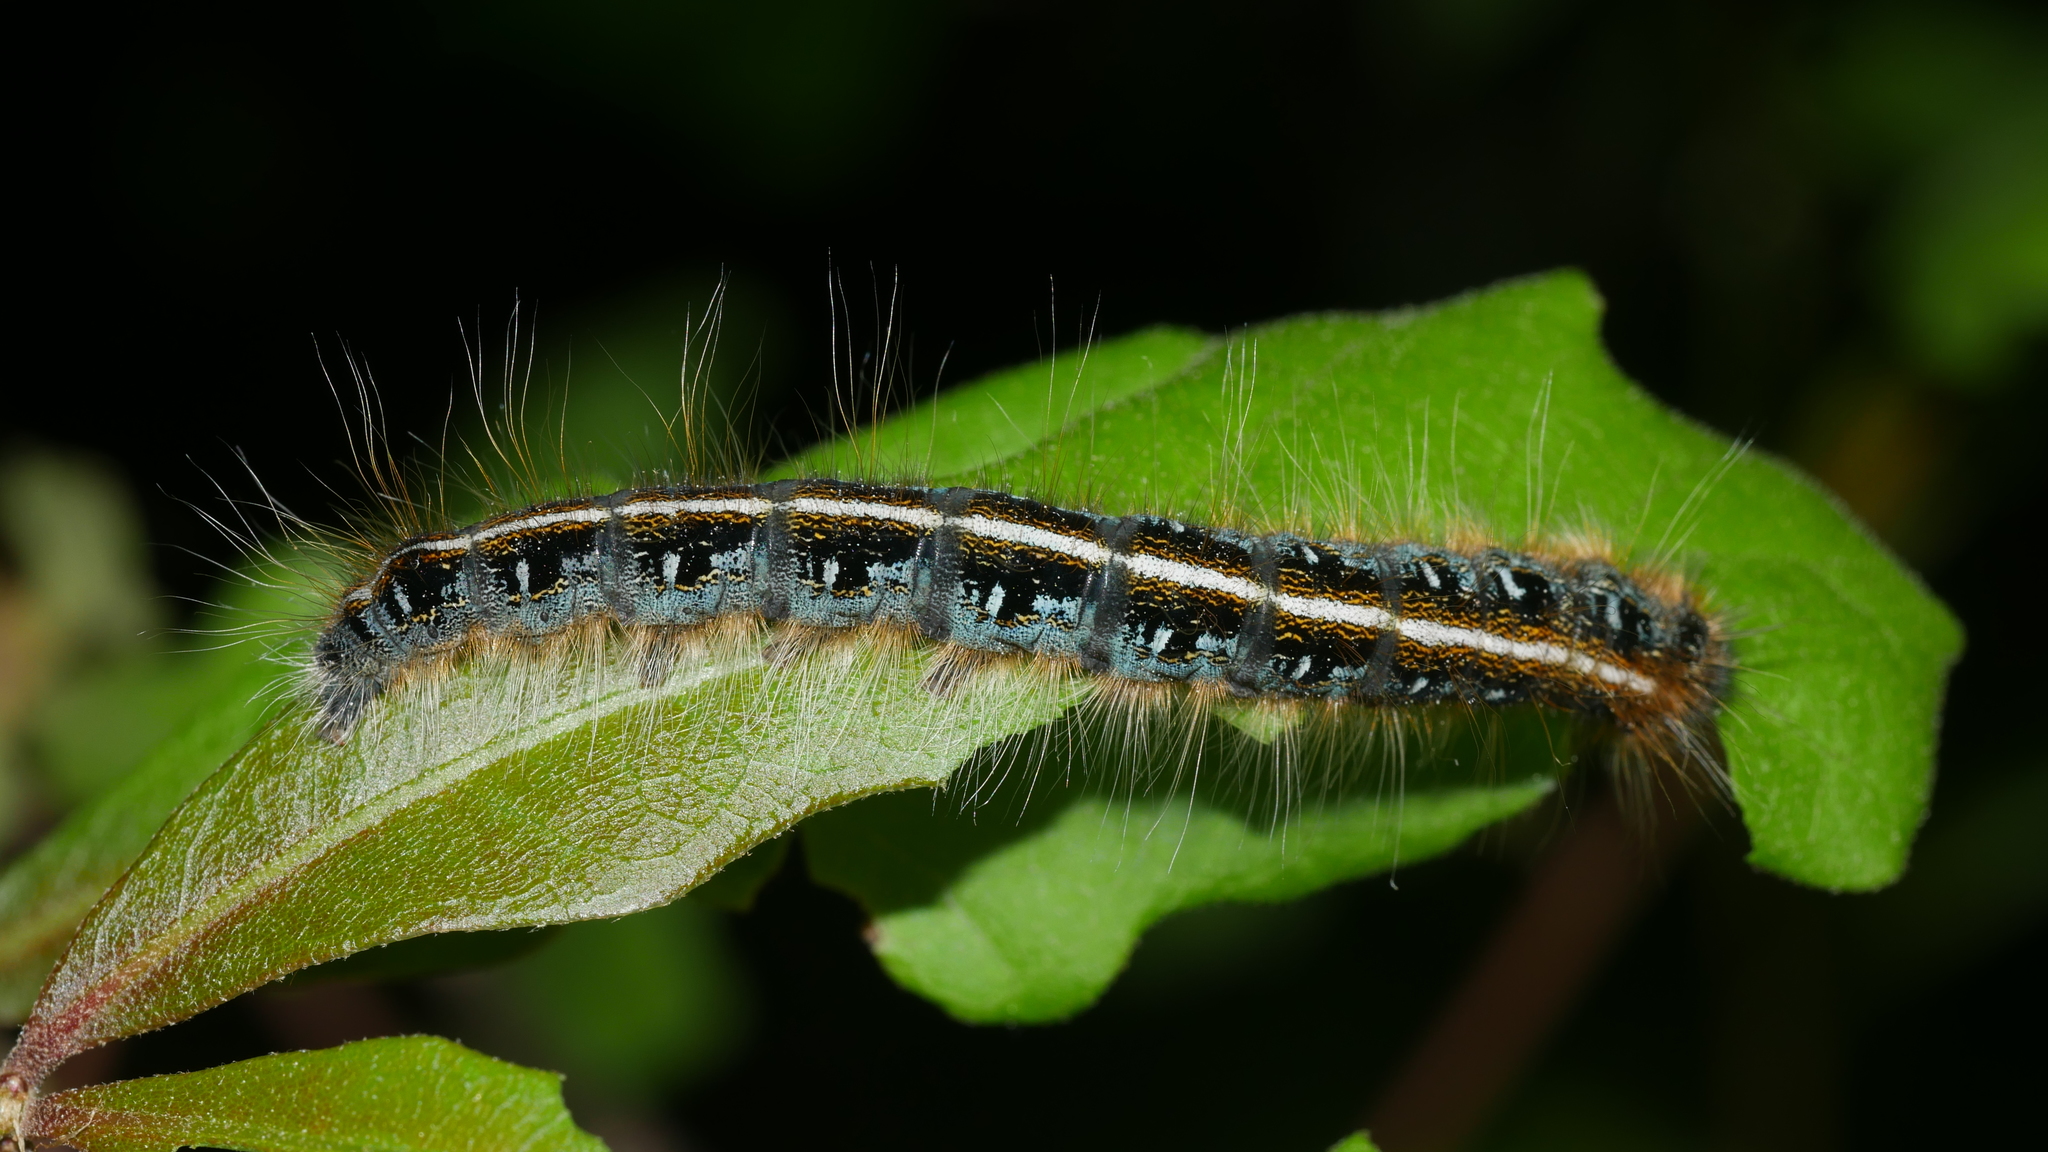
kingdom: Animalia
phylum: Arthropoda
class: Insecta
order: Lepidoptera
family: Lasiocampidae
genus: Malacosoma
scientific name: Malacosoma americana
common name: Eastern tent caterpillar moth
